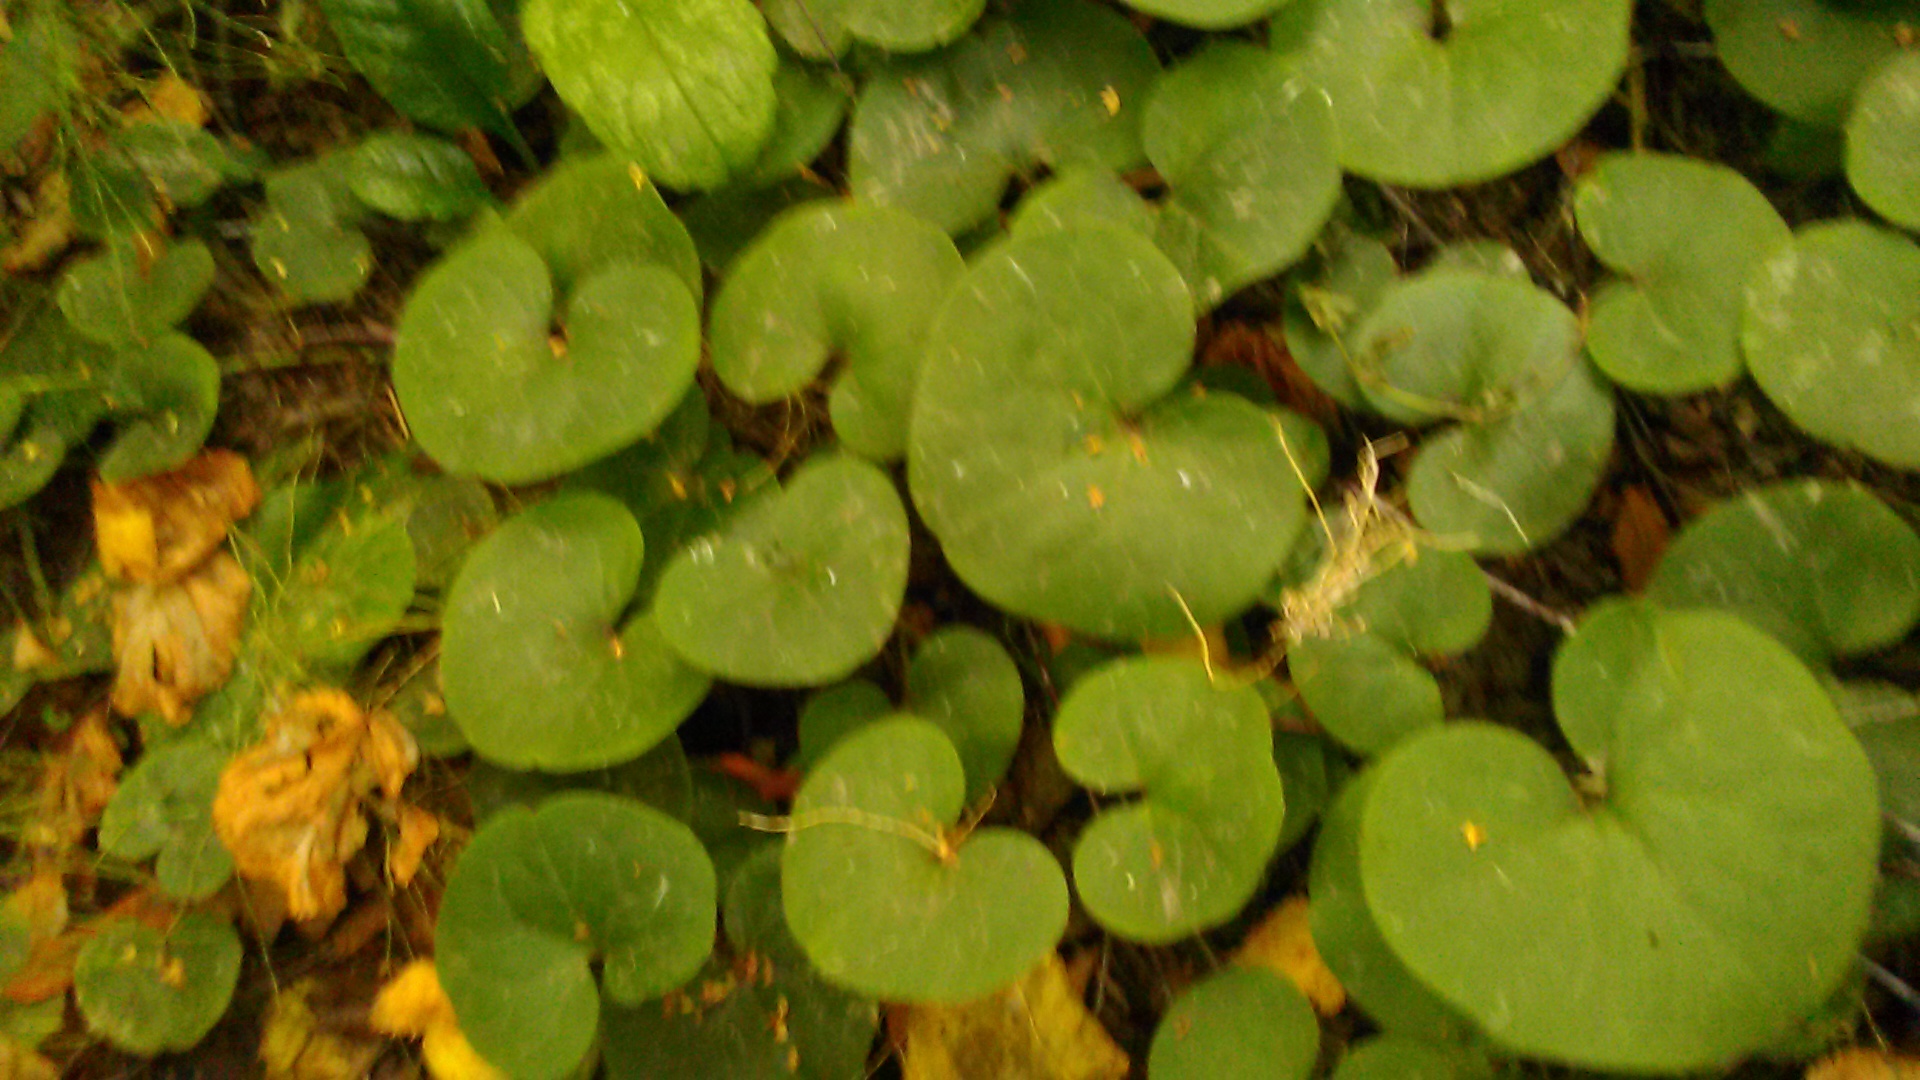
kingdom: Plantae
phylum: Tracheophyta
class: Magnoliopsida
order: Piperales
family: Aristolochiaceae
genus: Asarum
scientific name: Asarum europaeum
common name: Asarabacca
